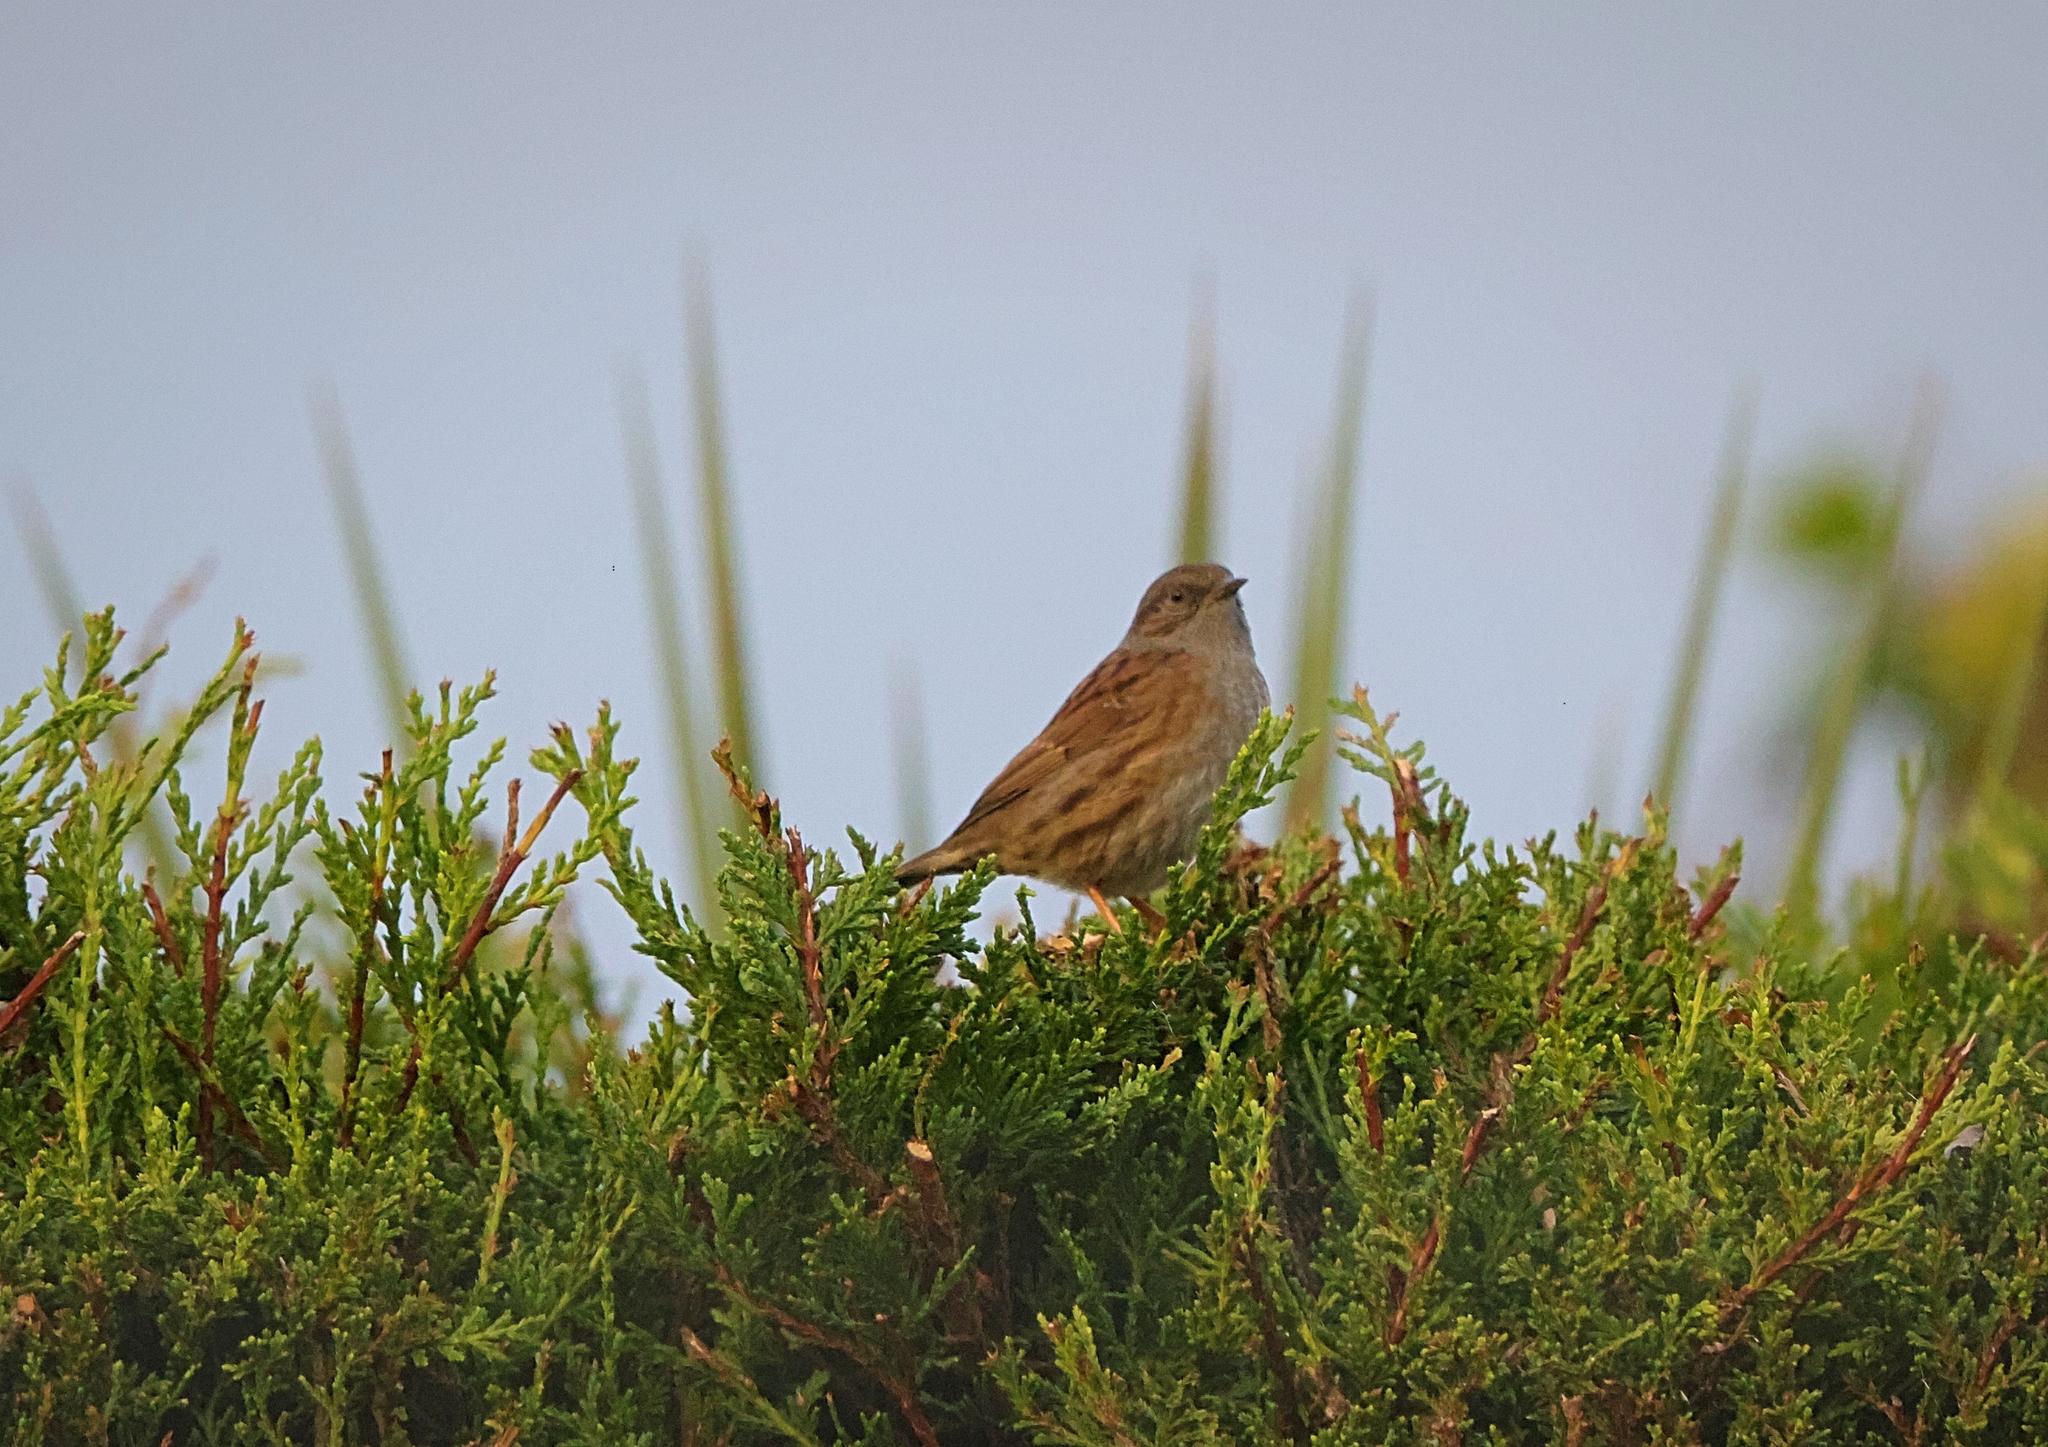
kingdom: Animalia
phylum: Chordata
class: Aves
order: Passeriformes
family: Prunellidae
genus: Prunella
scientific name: Prunella modularis
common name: Dunnock
